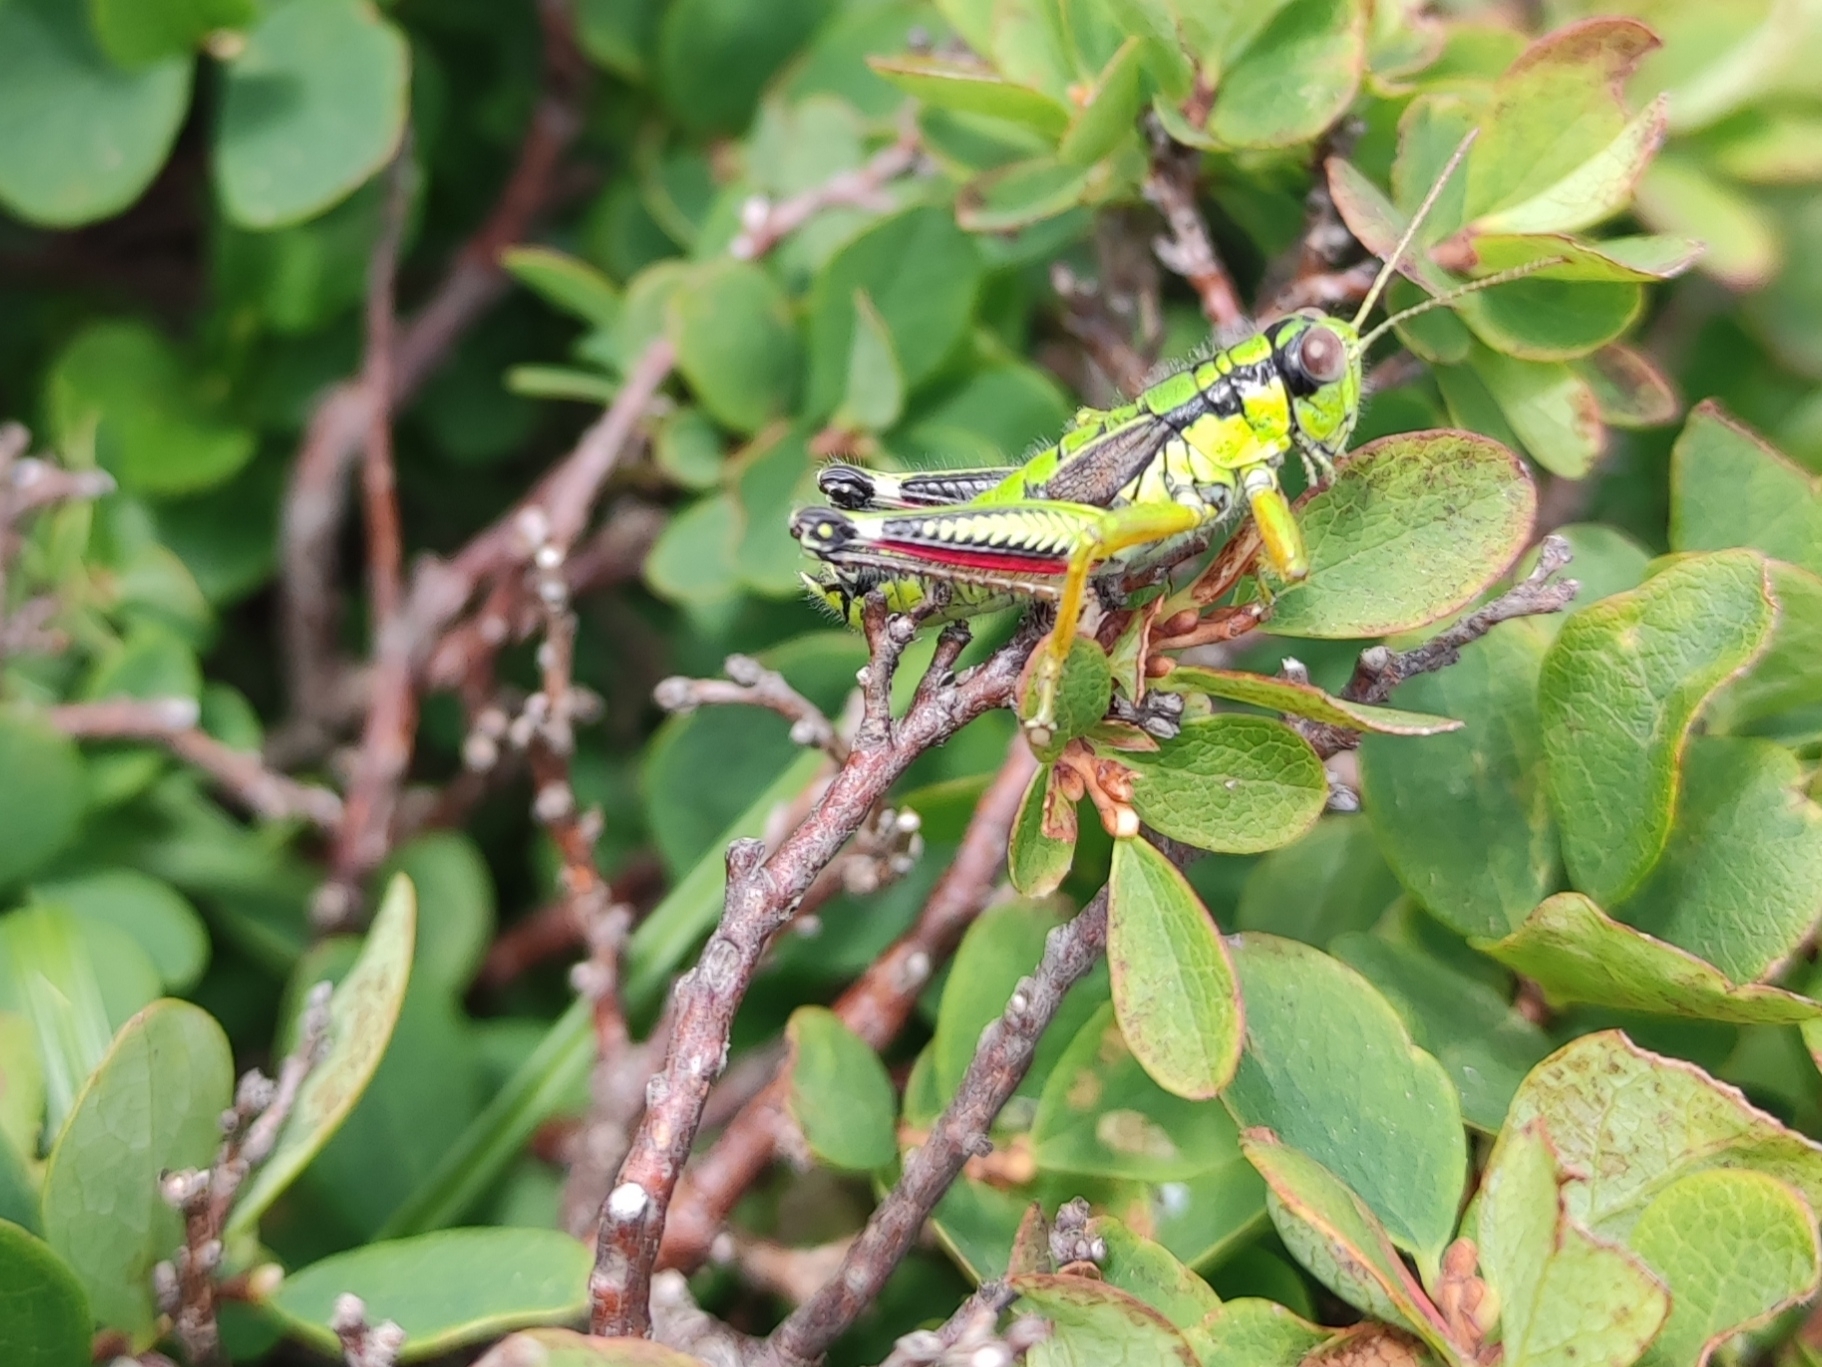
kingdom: Animalia
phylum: Arthropoda
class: Insecta
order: Orthoptera
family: Acrididae
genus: Miramella
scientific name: Miramella alpina
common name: Green mountain grasshopper
